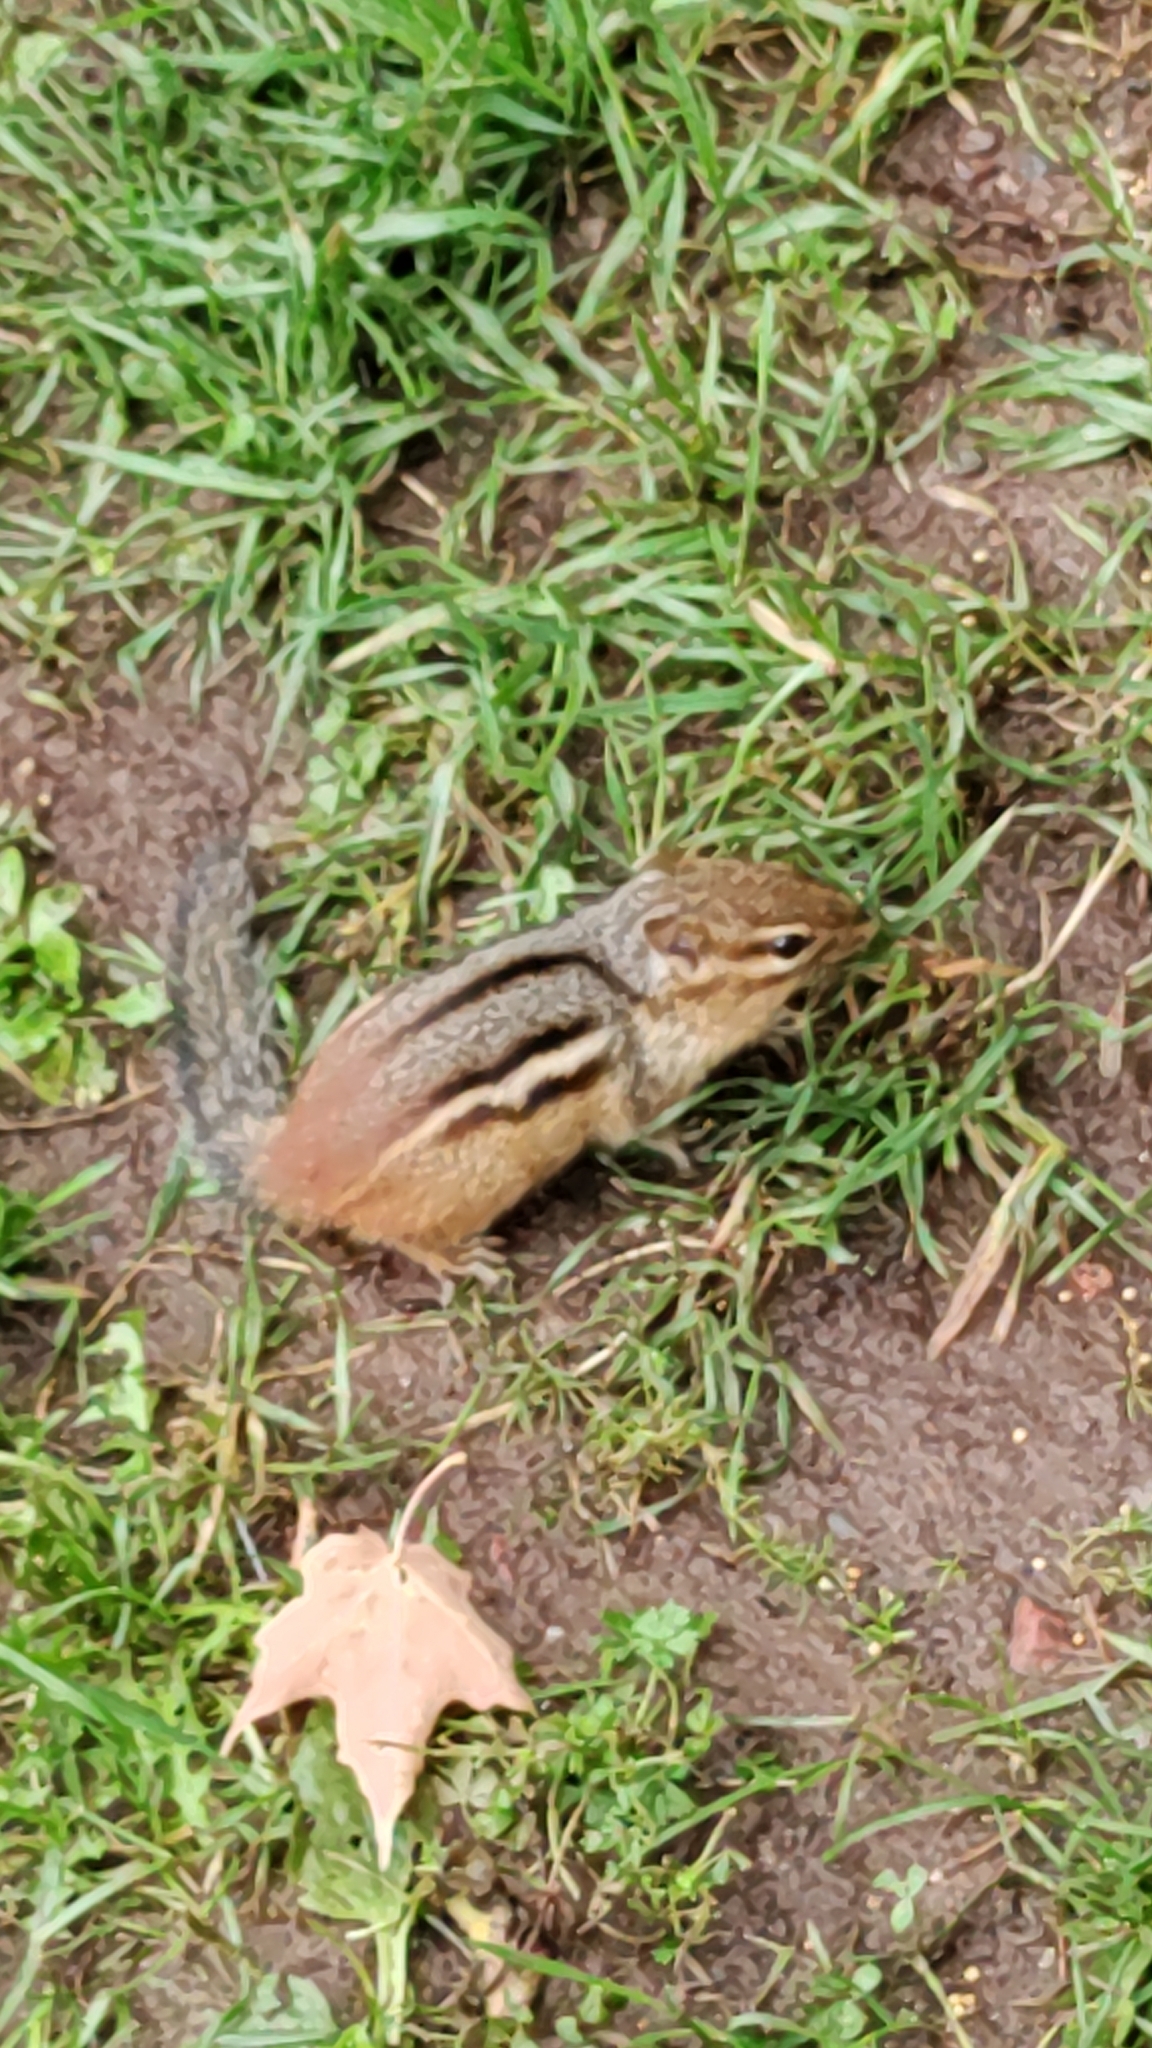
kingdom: Animalia
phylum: Chordata
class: Mammalia
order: Rodentia
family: Sciuridae
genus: Tamias
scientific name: Tamias striatus
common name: Eastern chipmunk
